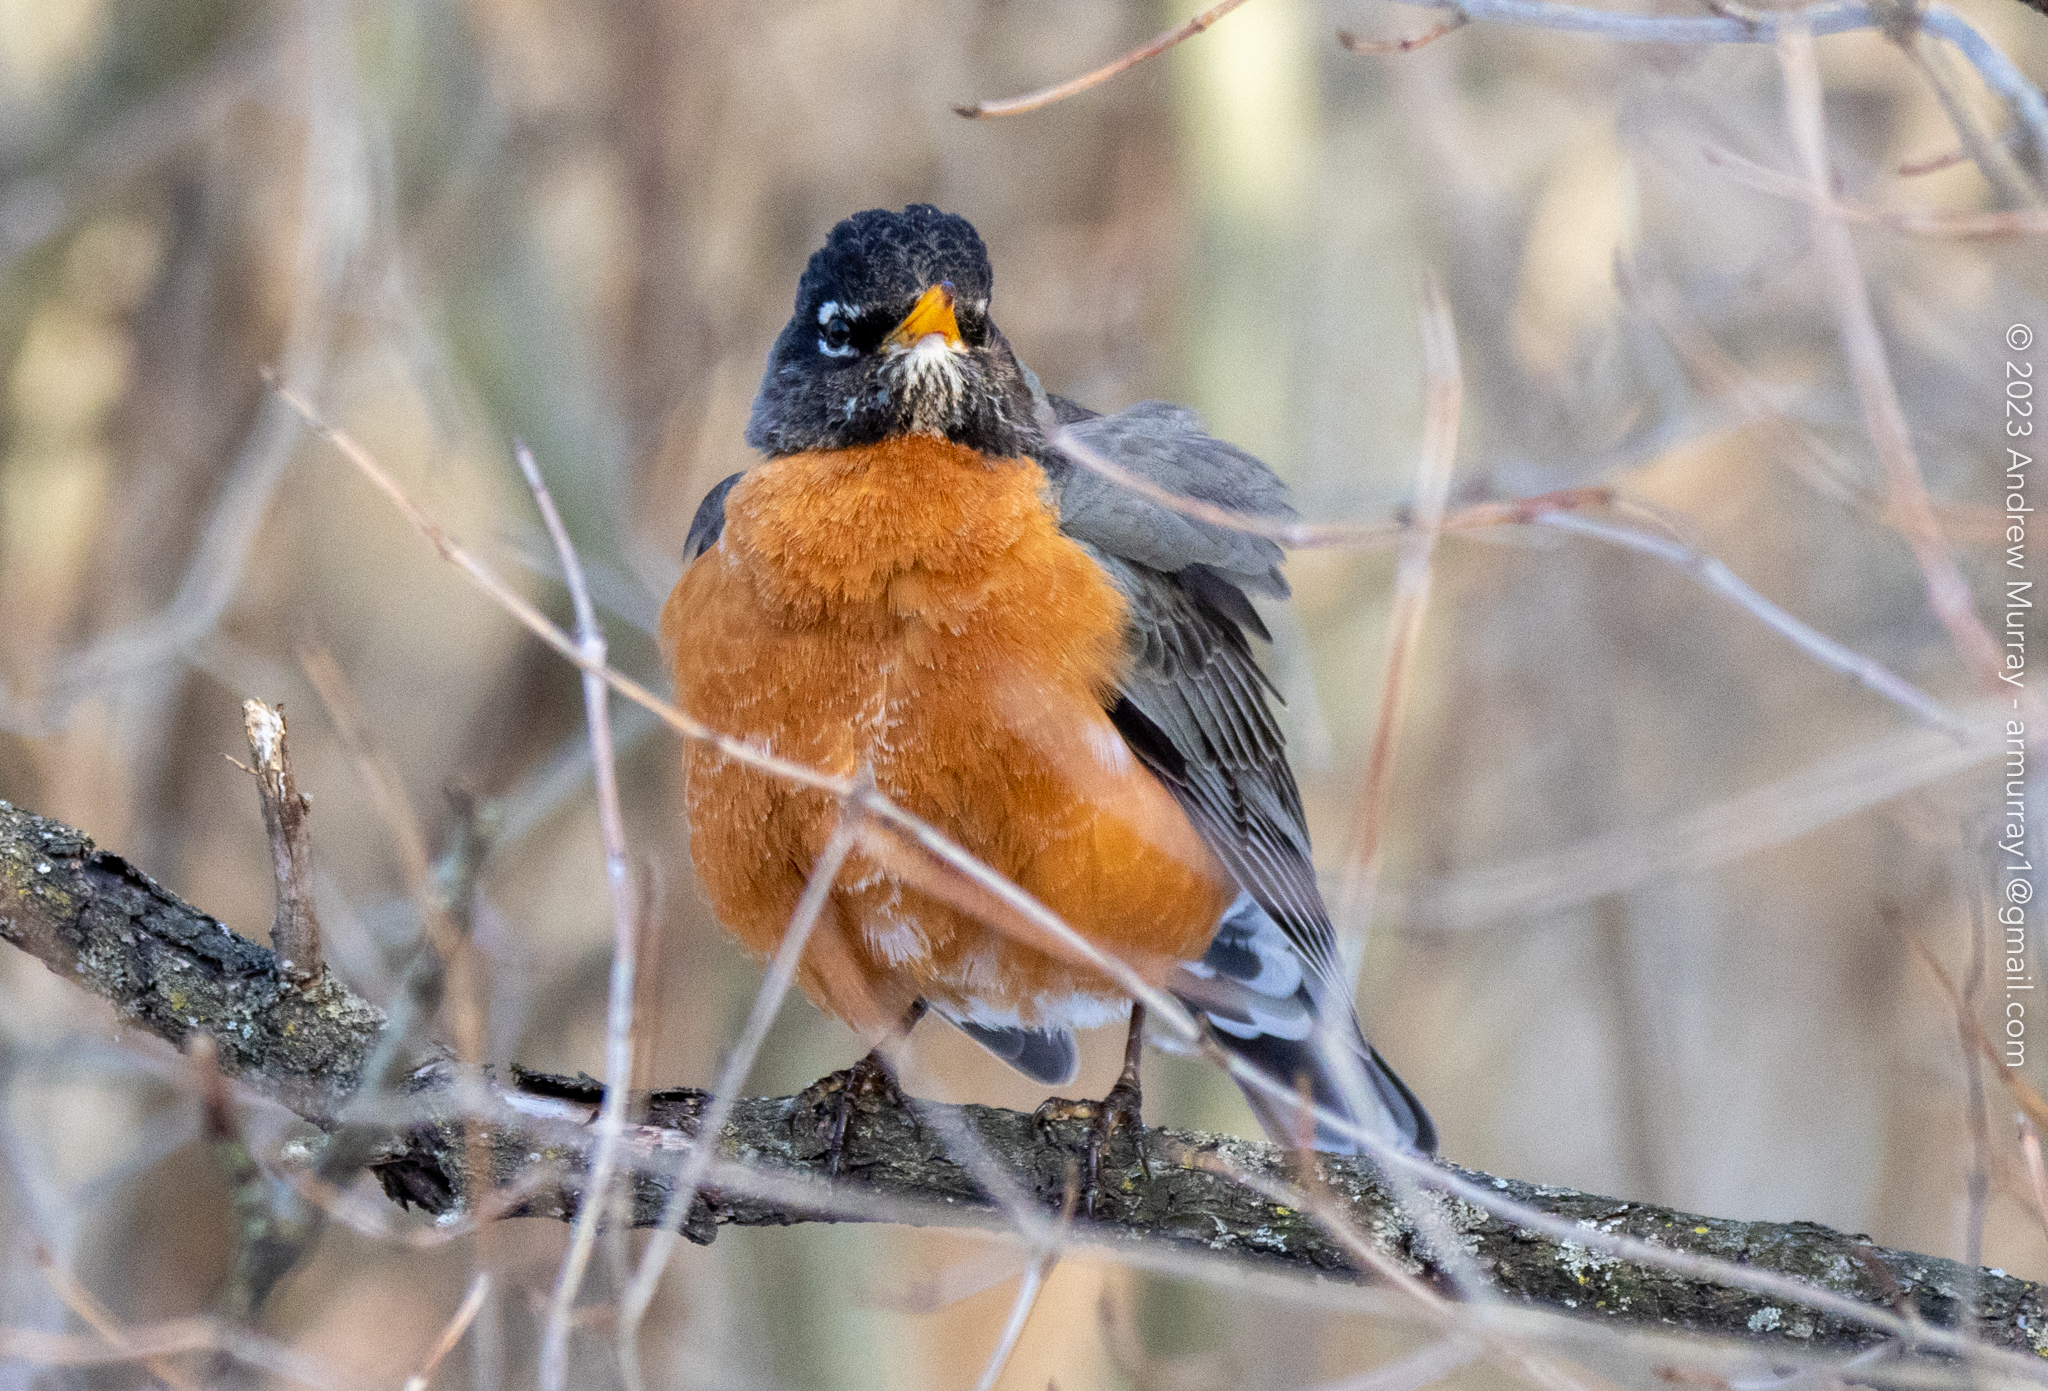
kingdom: Animalia
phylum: Chordata
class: Aves
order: Passeriformes
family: Turdidae
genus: Turdus
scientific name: Turdus migratorius
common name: American robin
